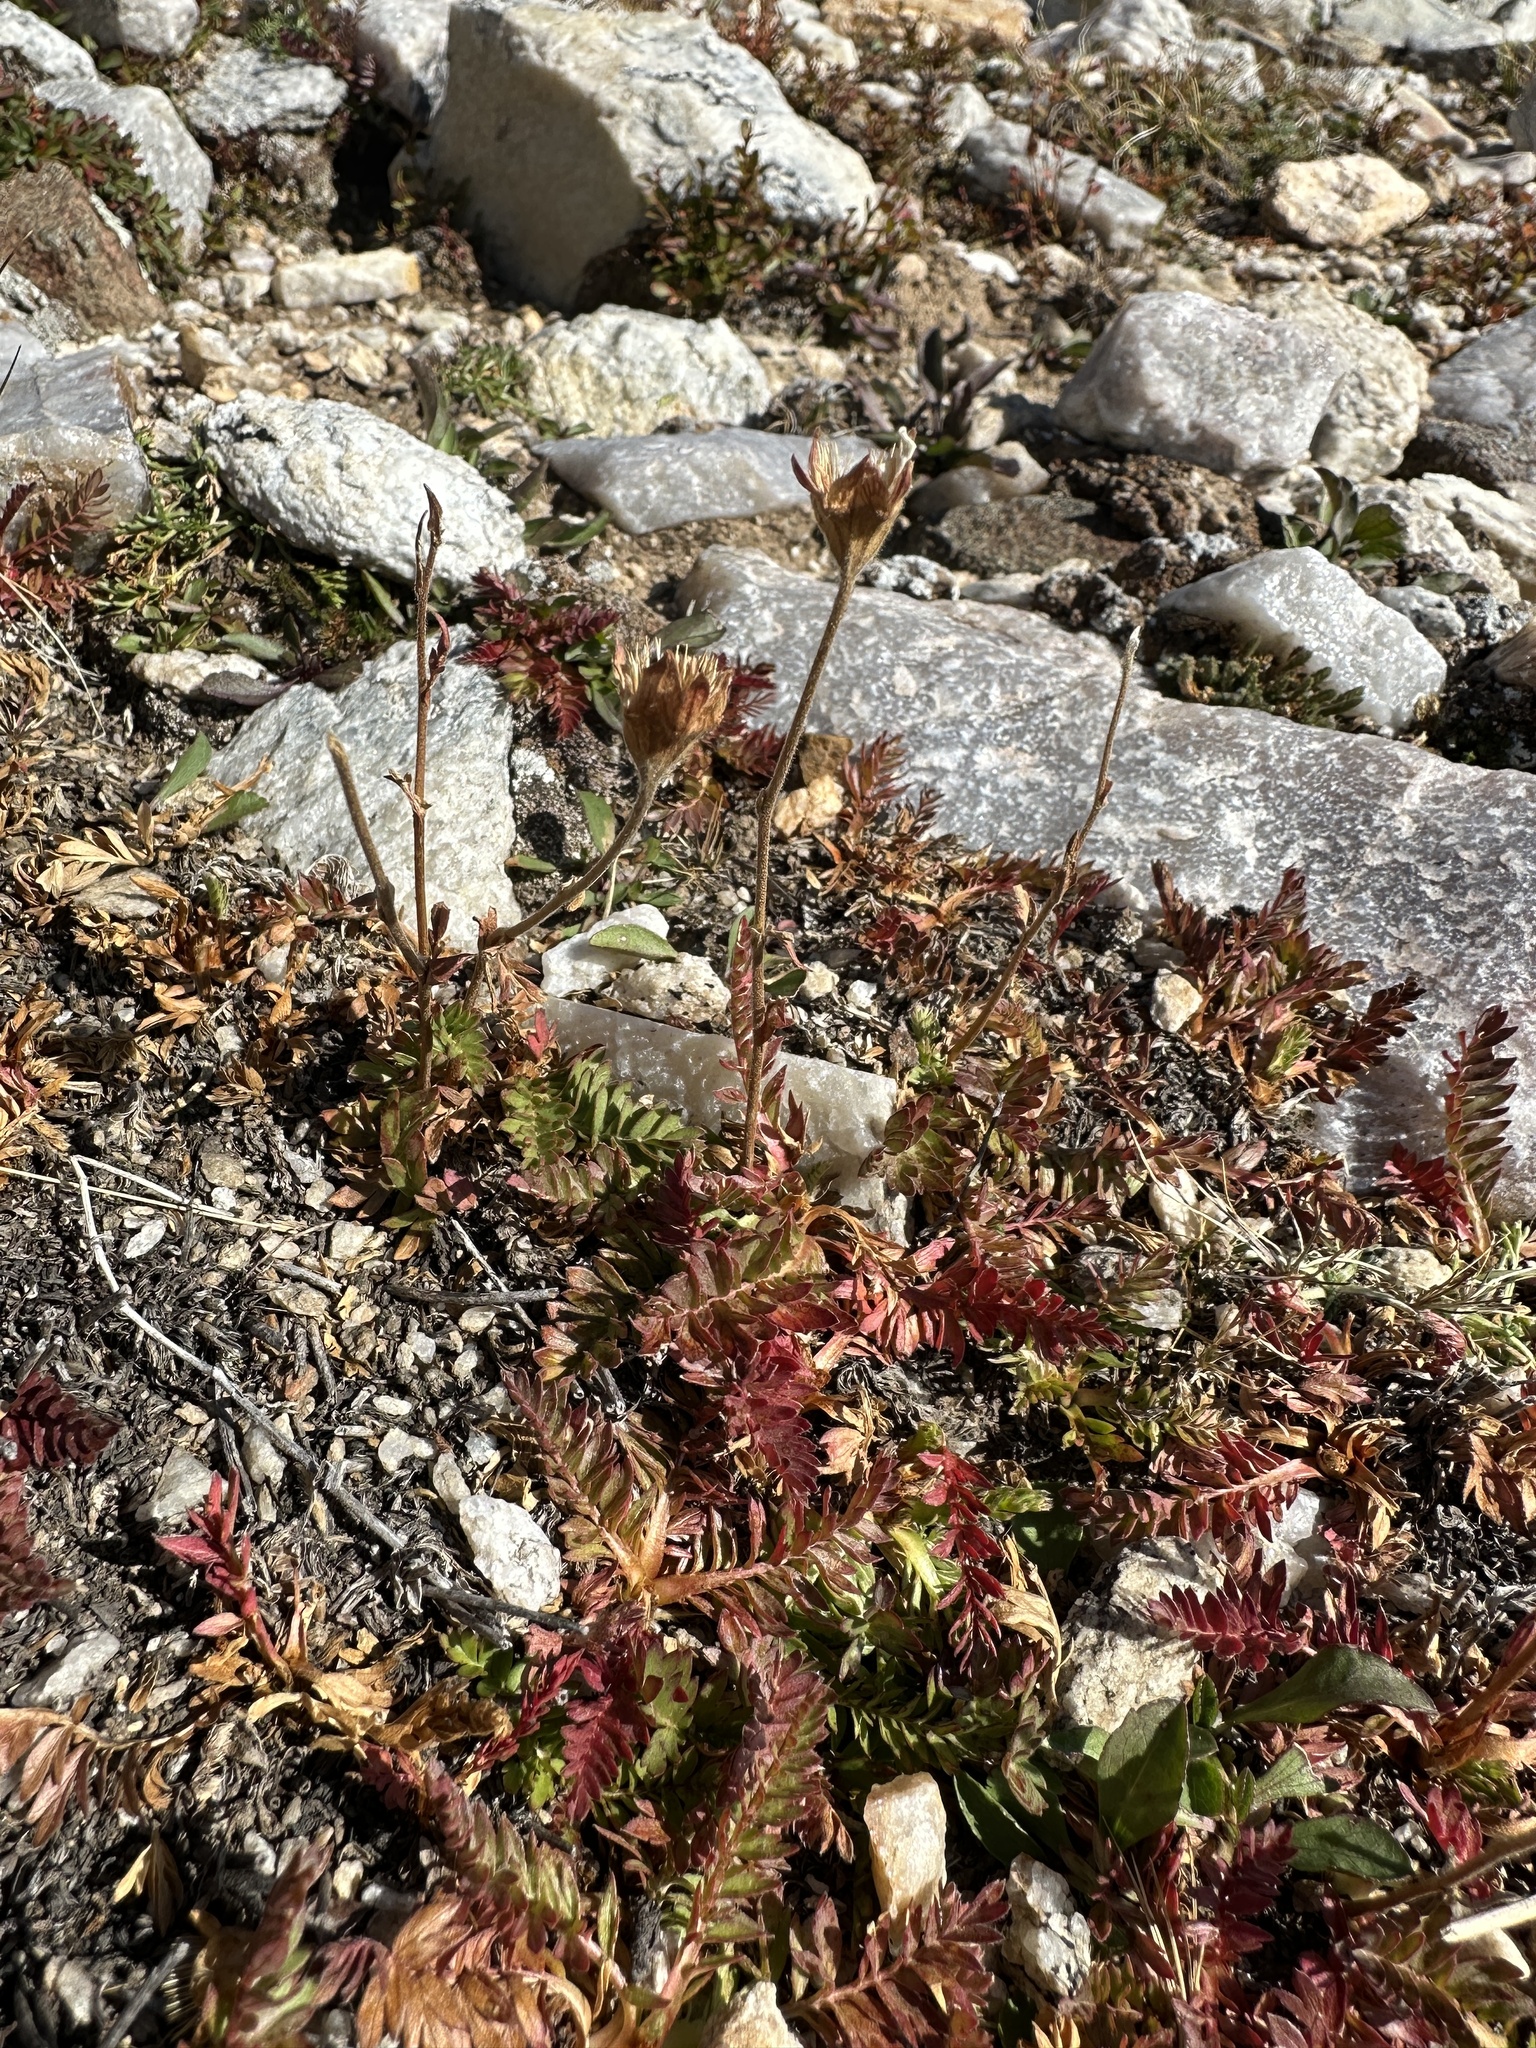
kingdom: Plantae
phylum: Tracheophyta
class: Magnoliopsida
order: Rosales
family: Rosaceae
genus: Geum
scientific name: Geum rossii
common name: Alpine avens
